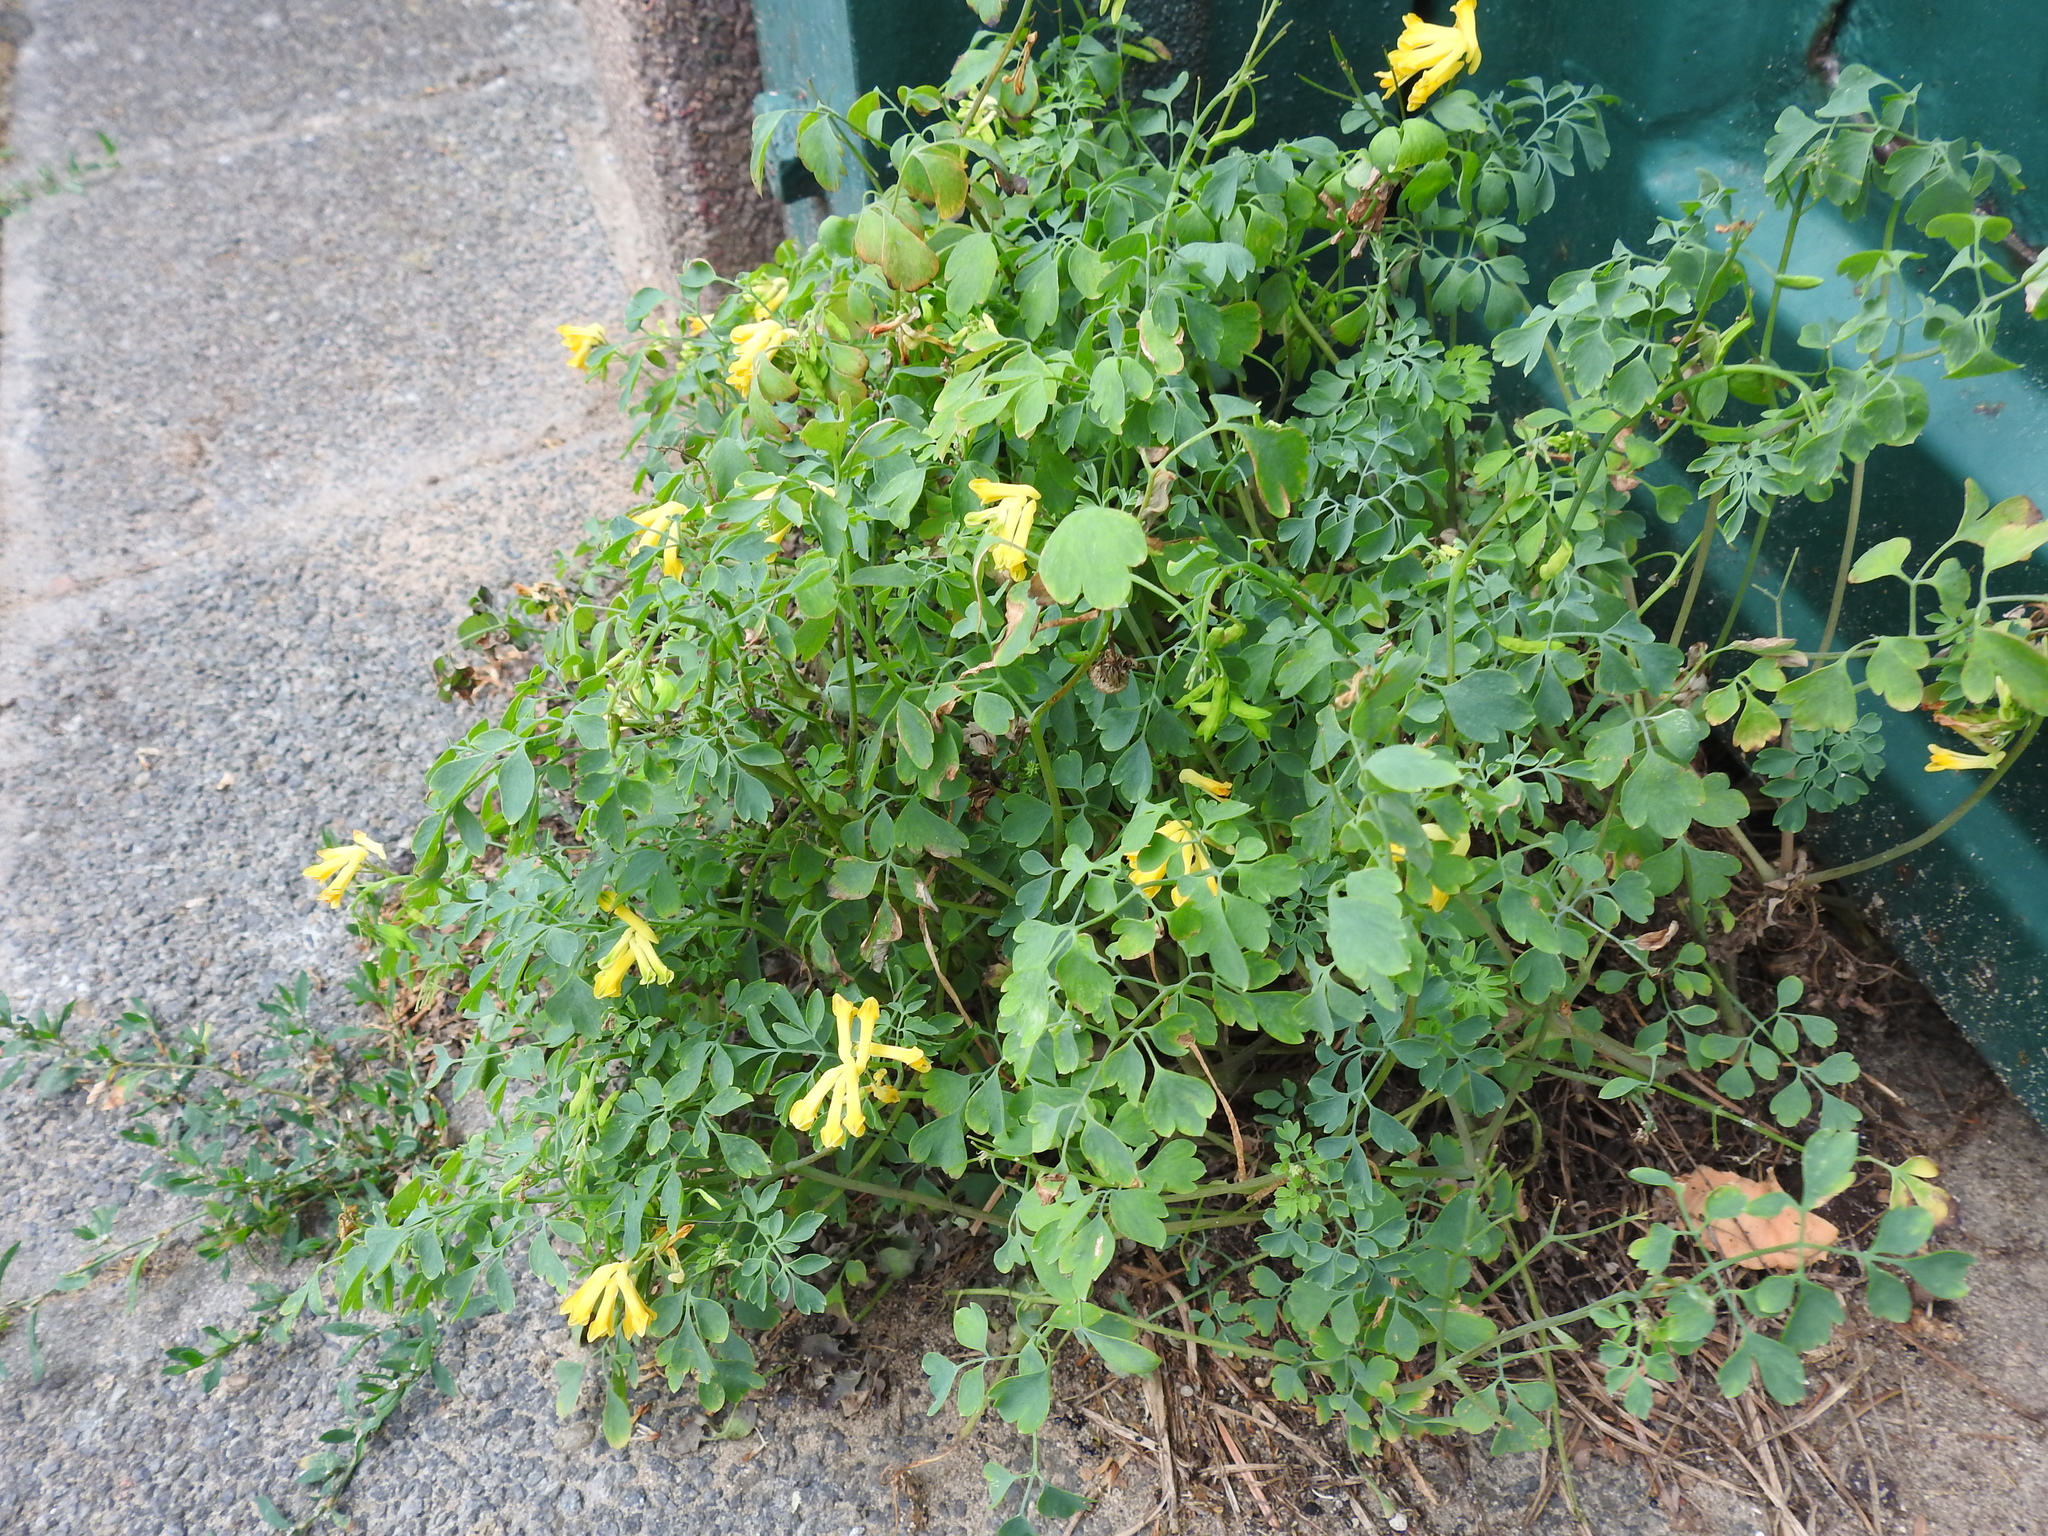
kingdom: Plantae
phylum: Tracheophyta
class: Magnoliopsida
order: Ranunculales
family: Papaveraceae
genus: Pseudofumaria
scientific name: Pseudofumaria lutea
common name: Yellow corydalis
